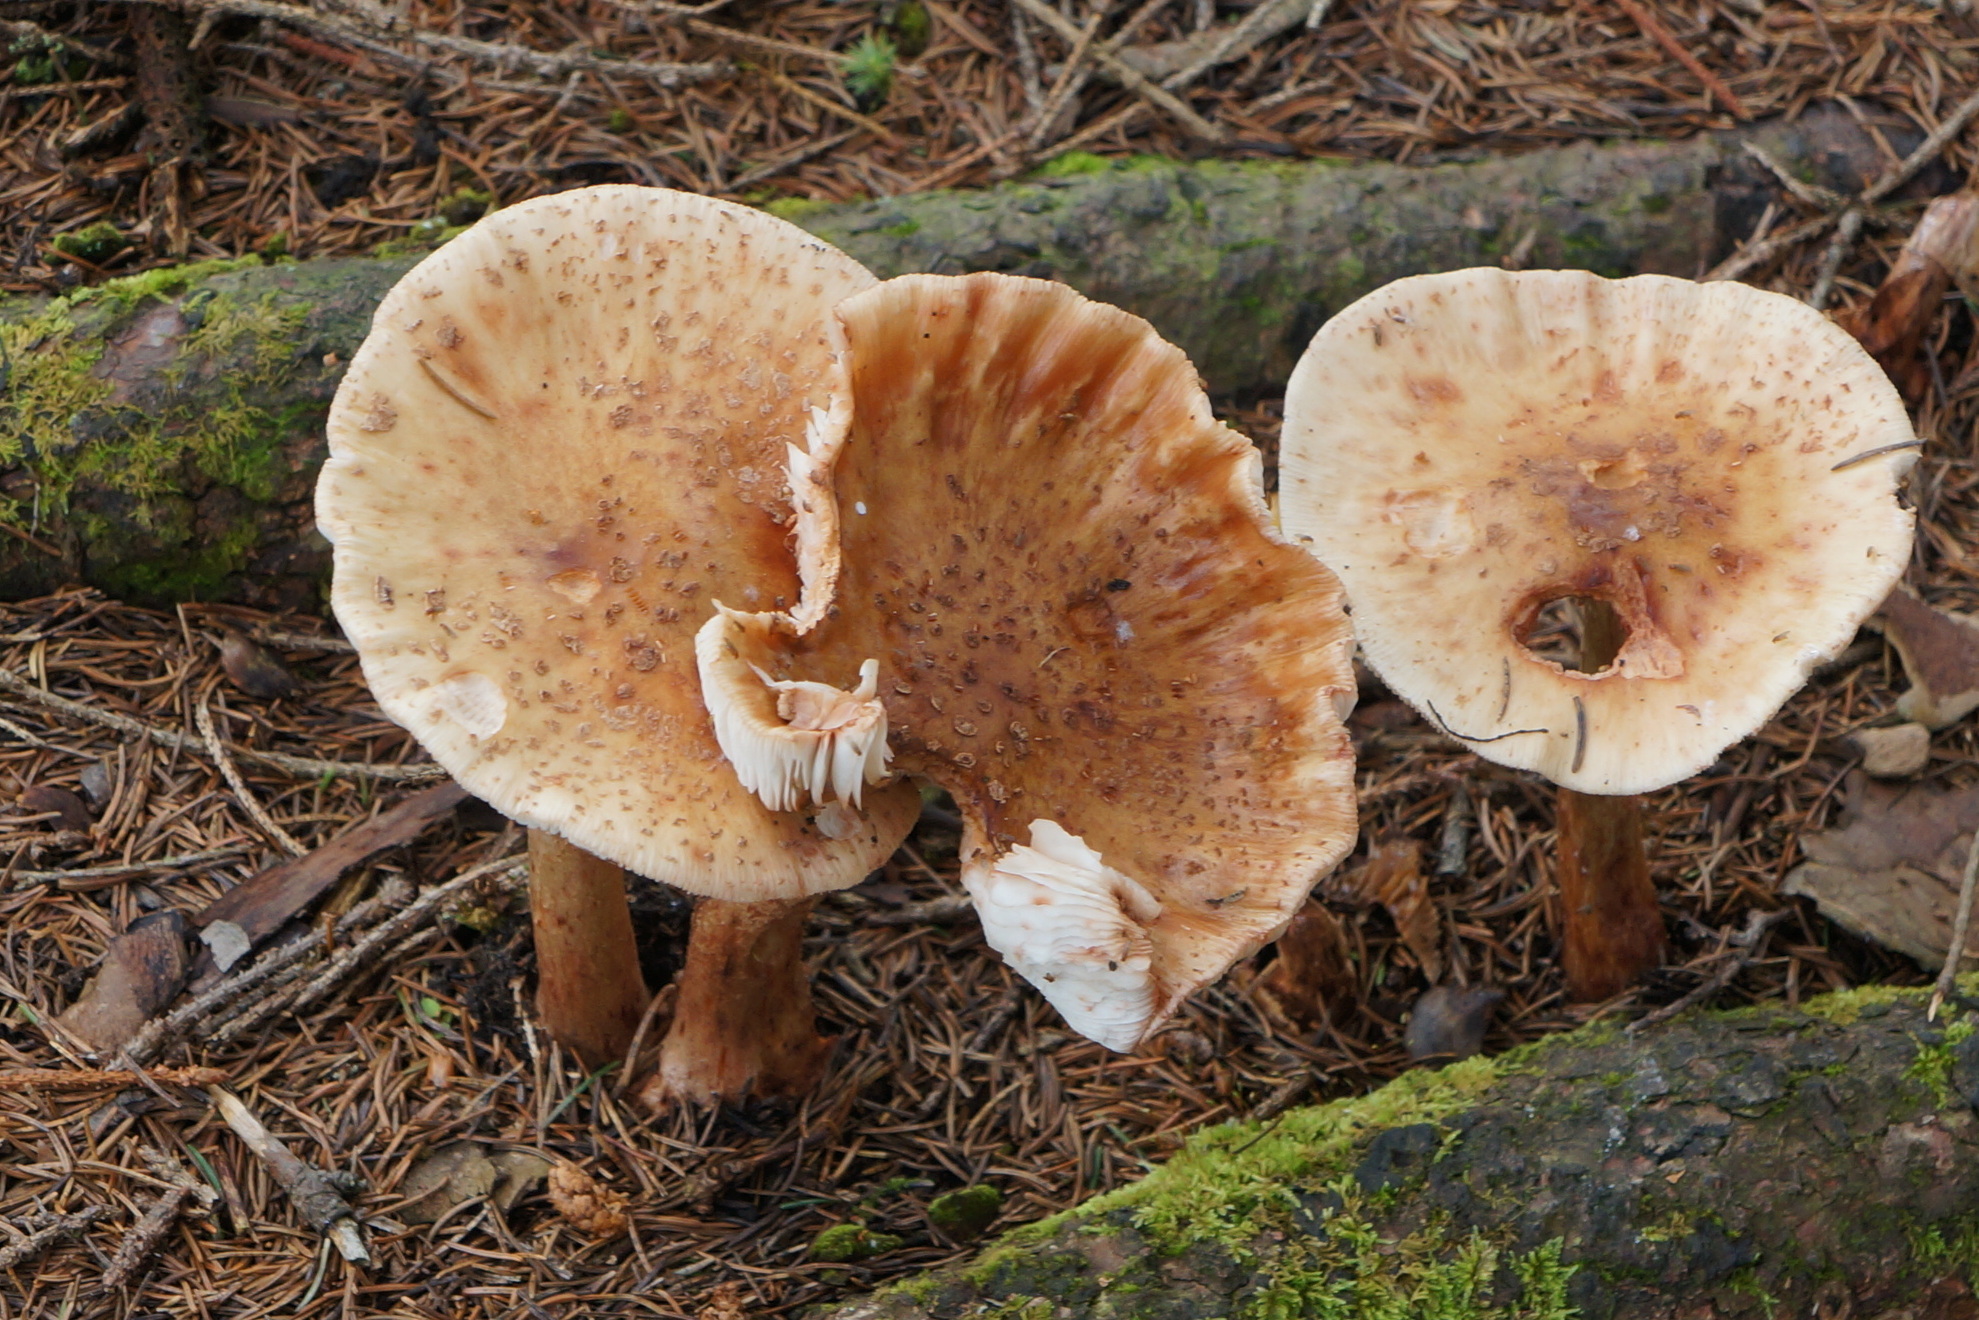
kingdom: Fungi
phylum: Basidiomycota
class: Agaricomycetes
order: Agaricales
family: Amanitaceae
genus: Amanita
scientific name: Amanita rubescens
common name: Blusher
